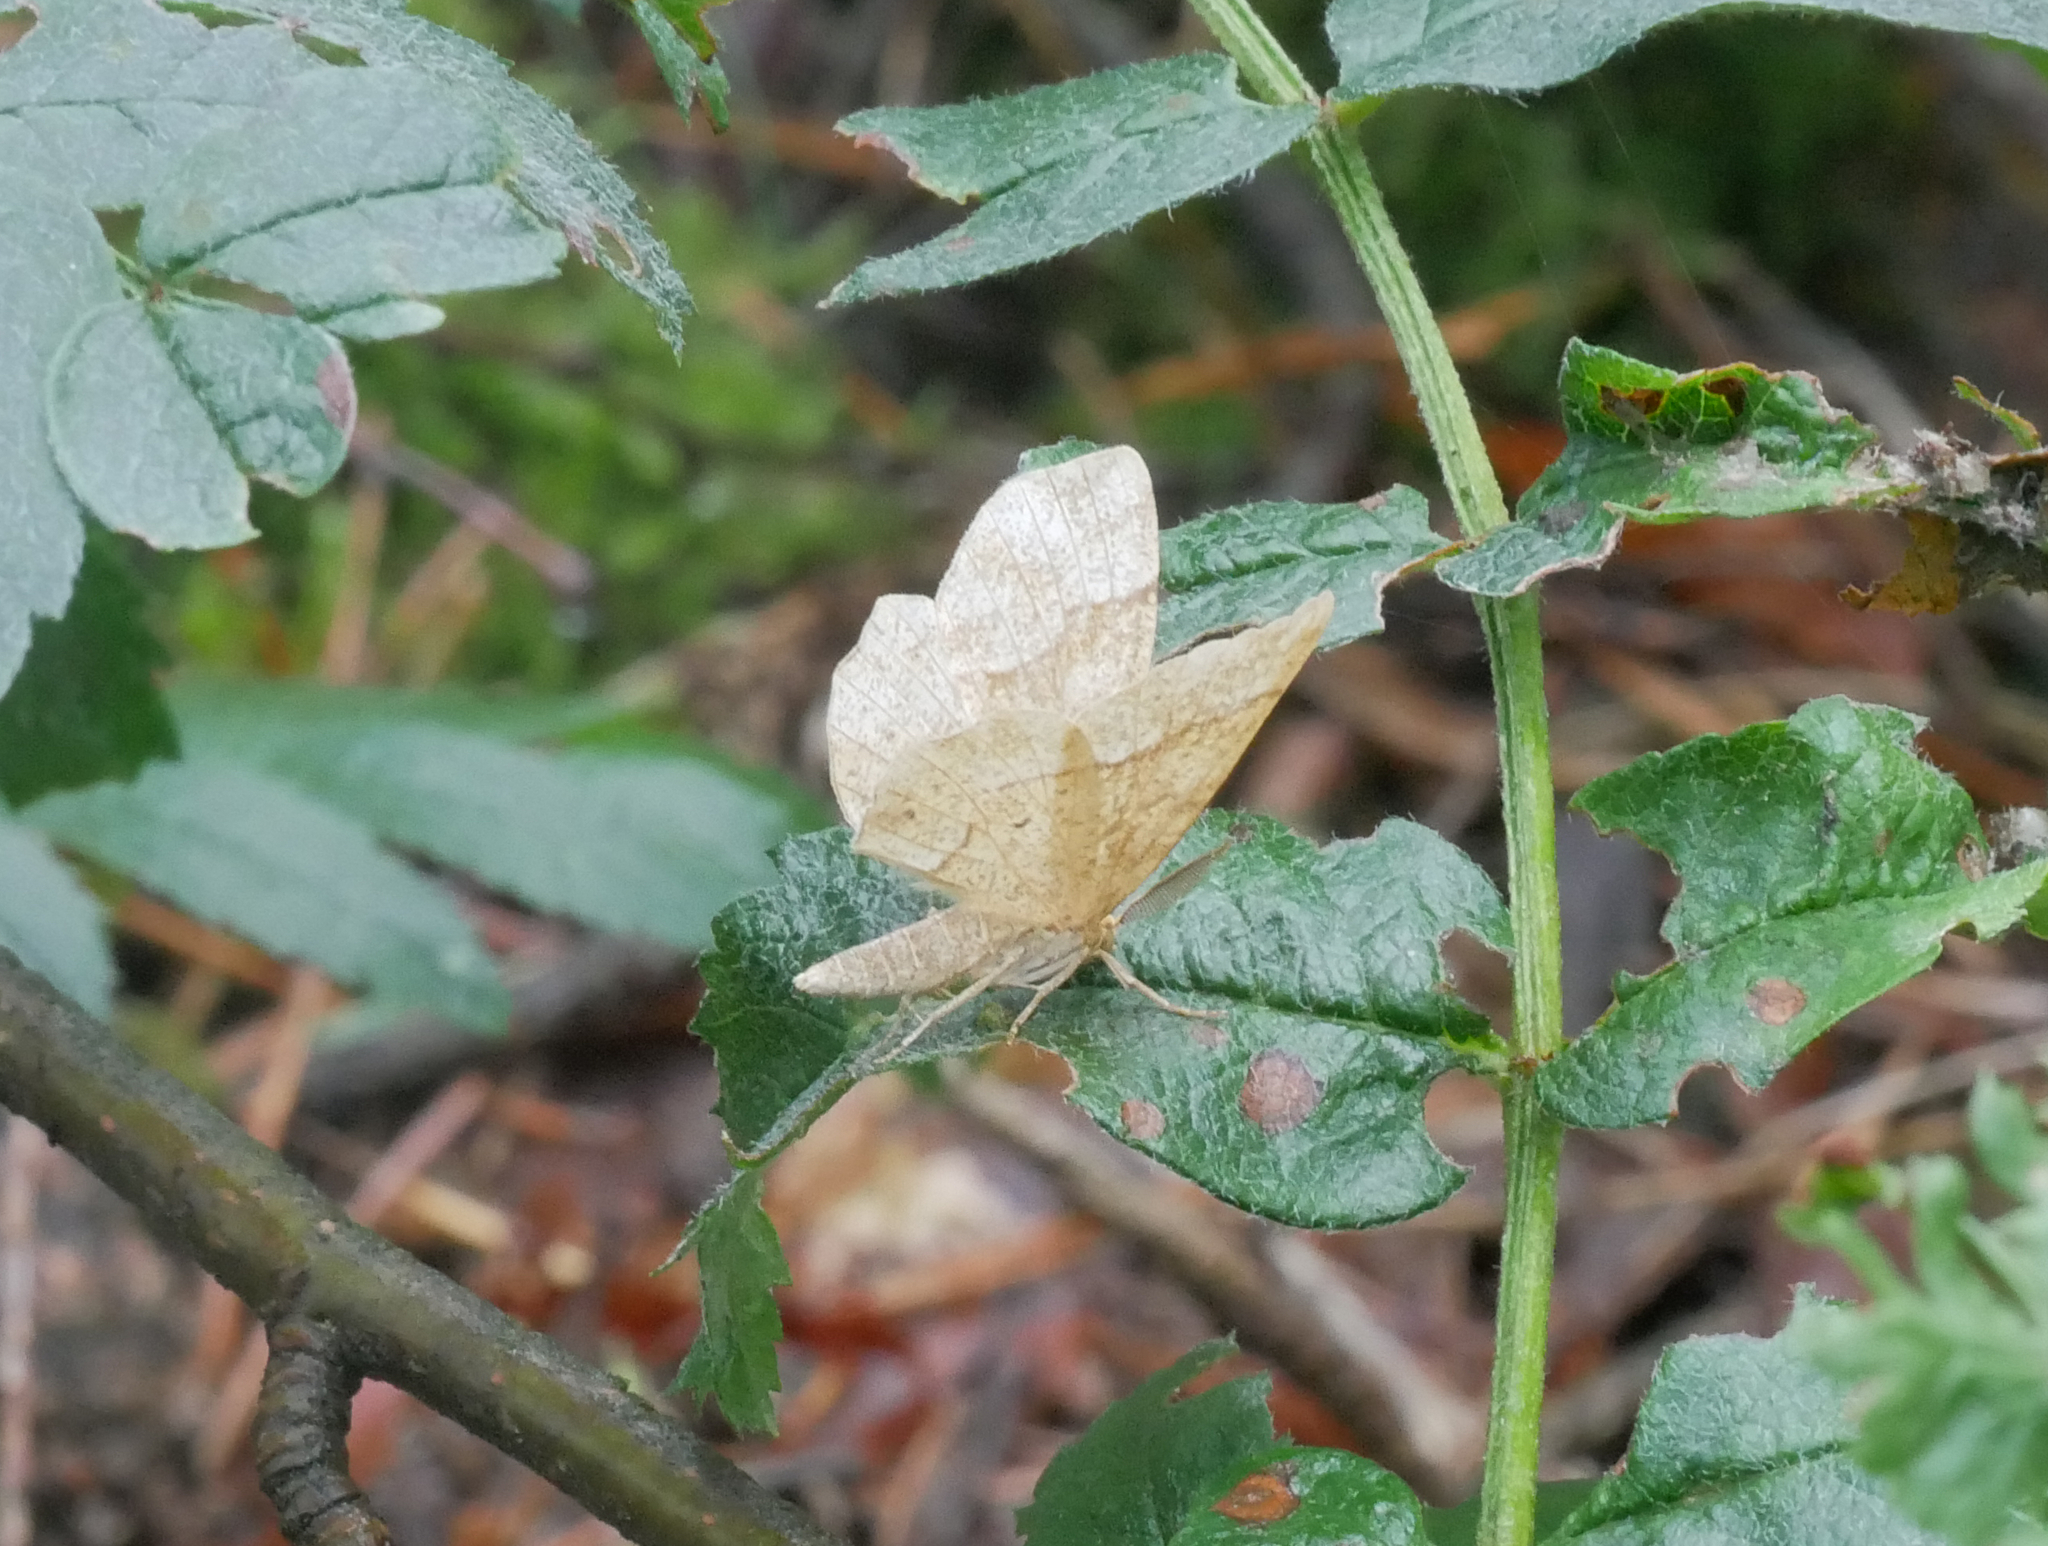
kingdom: Animalia
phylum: Arthropoda
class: Insecta
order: Lepidoptera
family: Geometridae
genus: Cepphis
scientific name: Cepphis advenaria
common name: Little thorn
